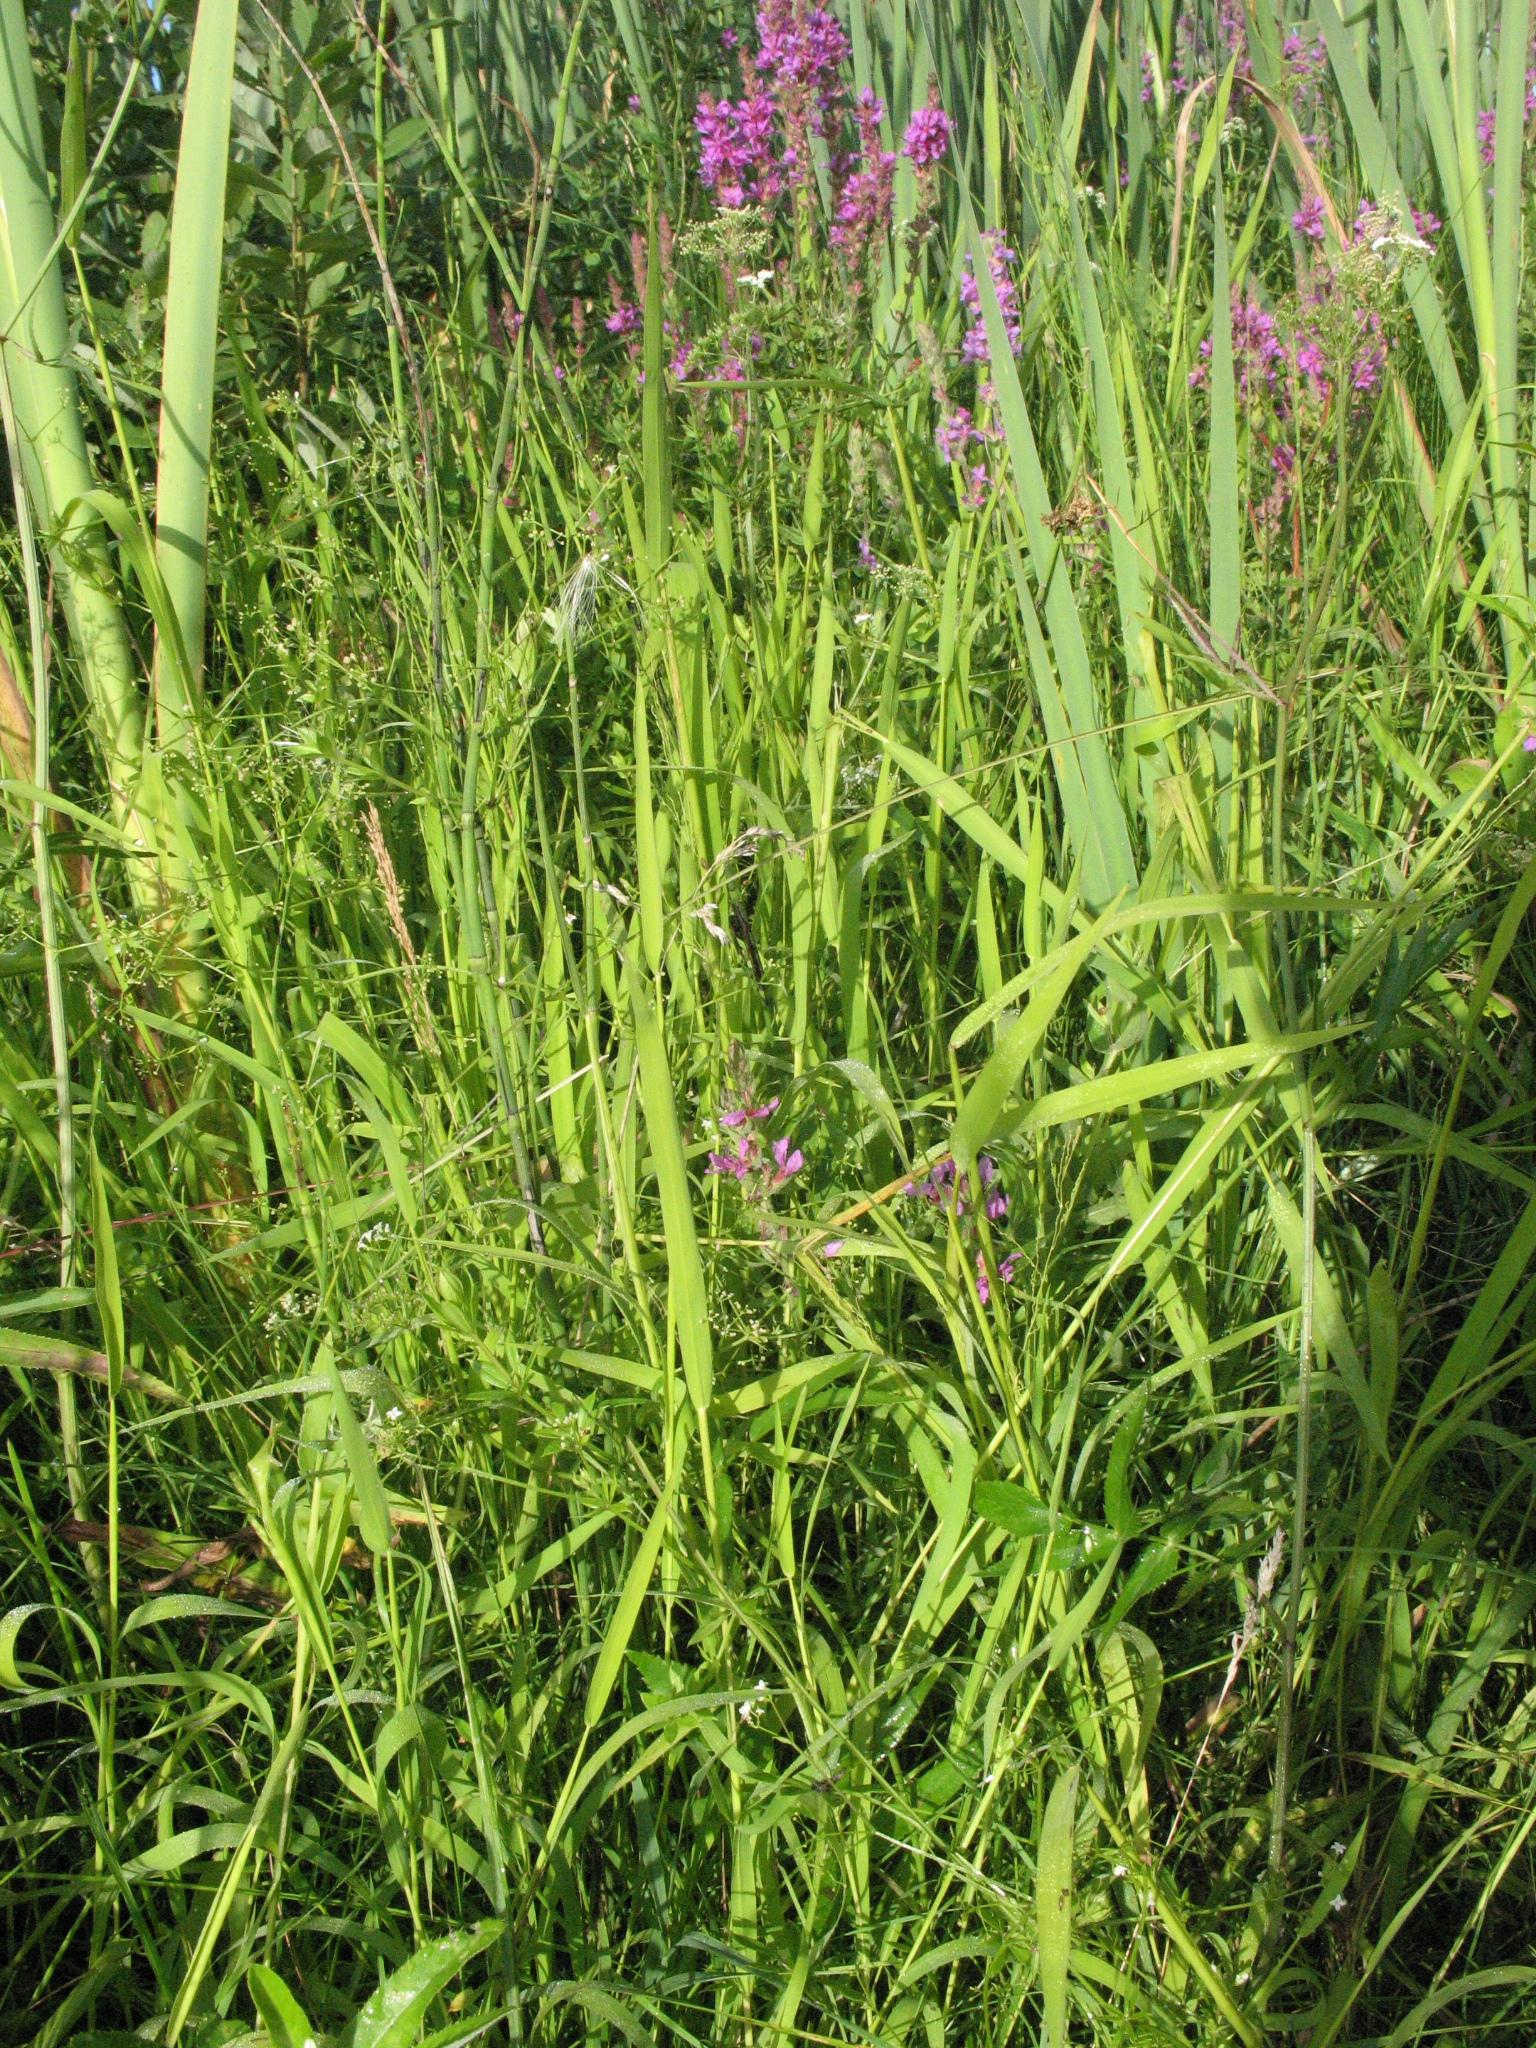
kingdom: Plantae
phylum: Tracheophyta
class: Liliopsida
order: Poales
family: Poaceae
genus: Leersia
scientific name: Leersia oryzoides
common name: Cut-grass
